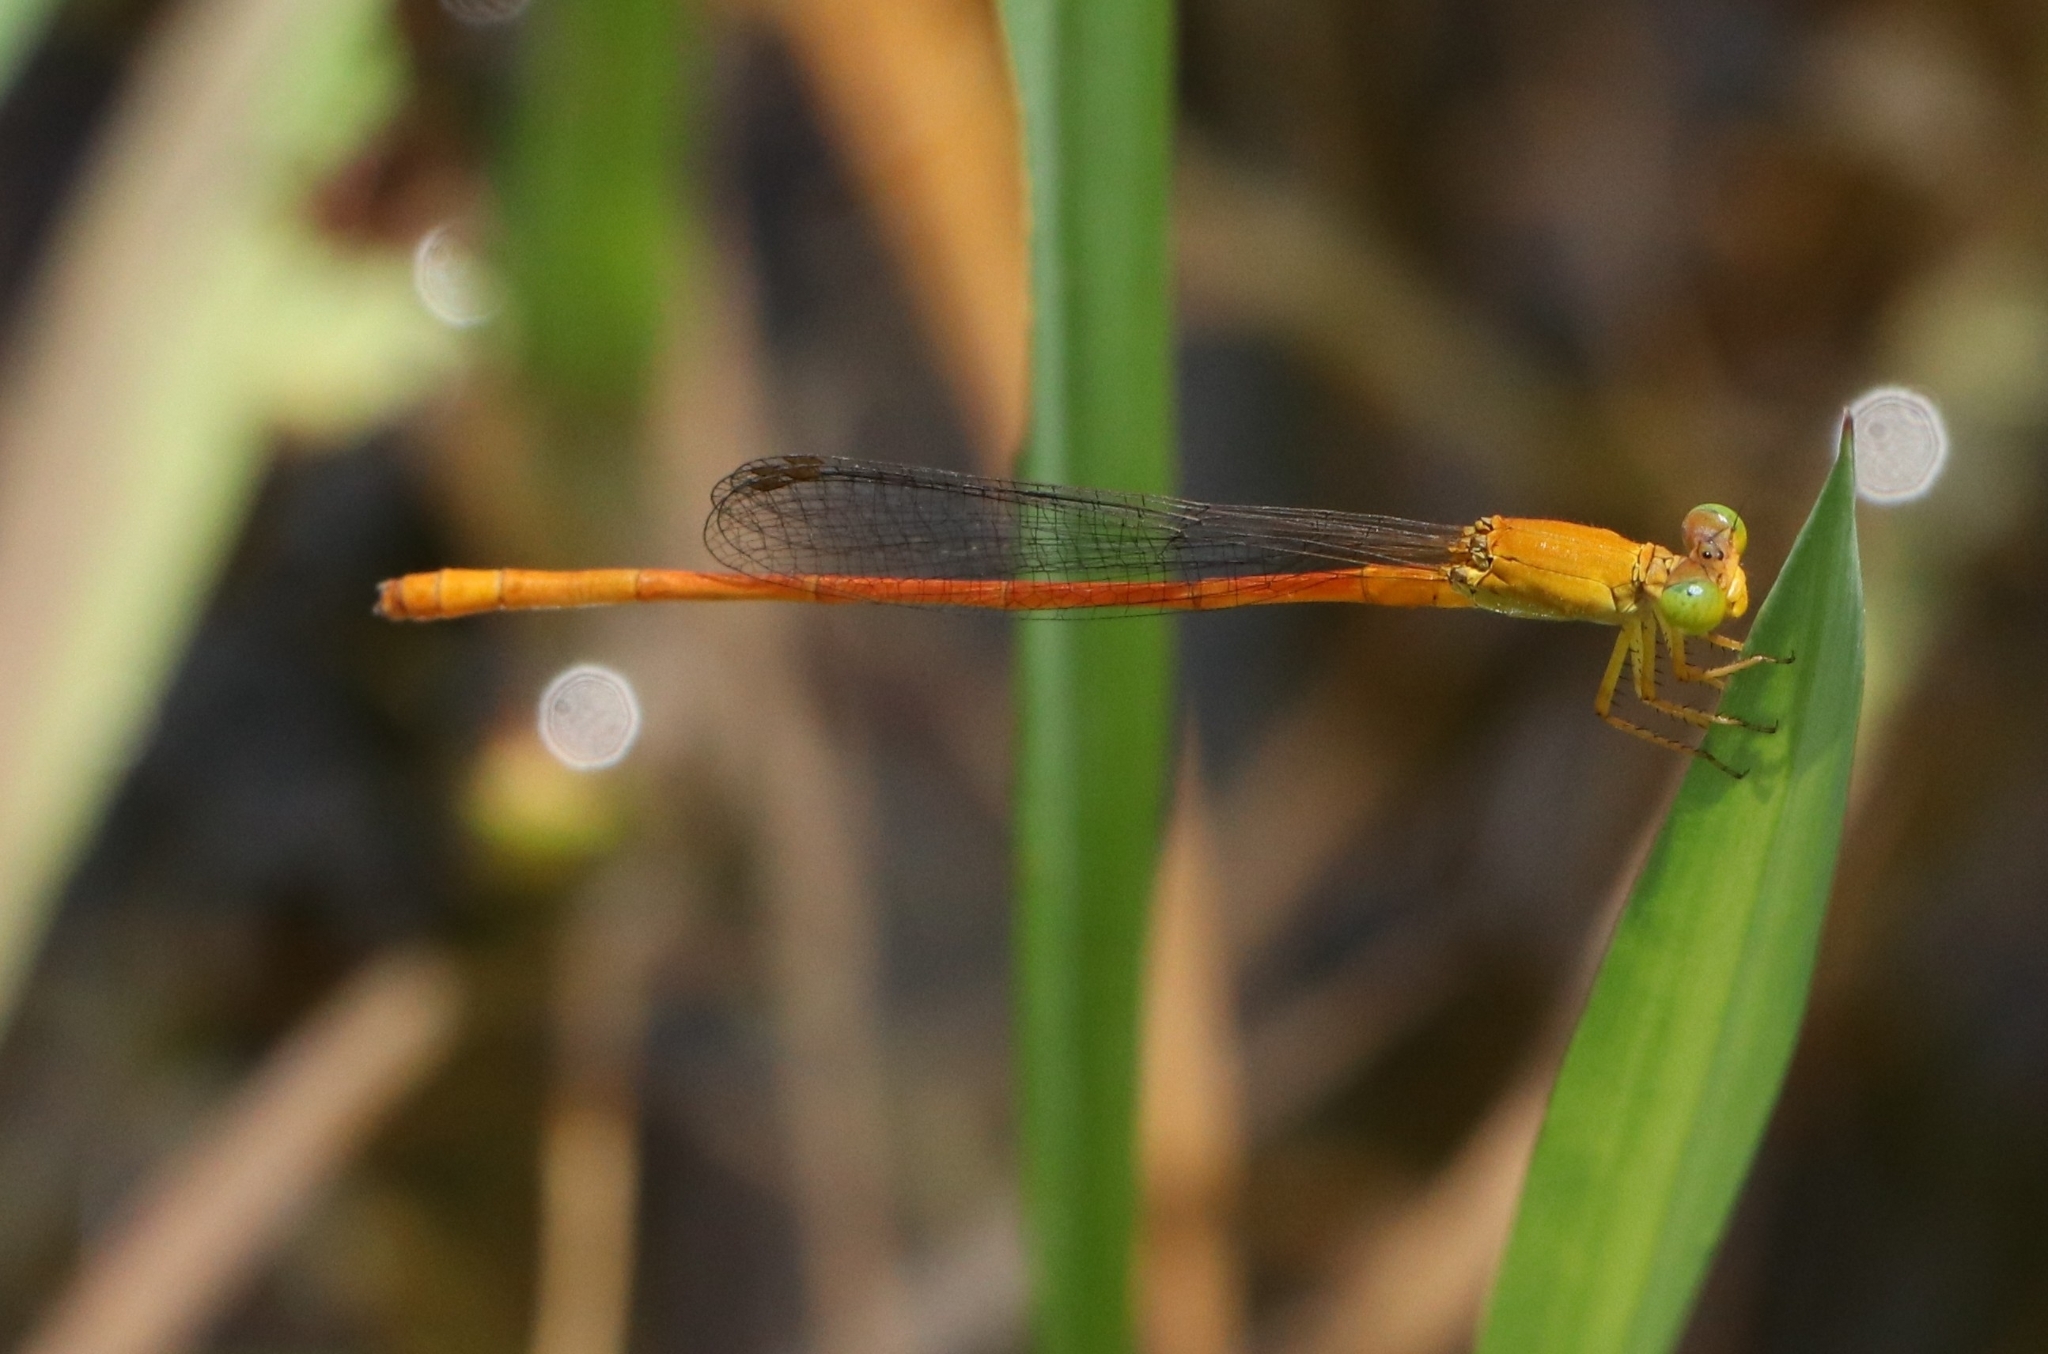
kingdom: Animalia
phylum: Arthropoda
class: Insecta
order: Odonata
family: Coenagrionidae
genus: Ceriagrion
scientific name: Ceriagrion rubiae
